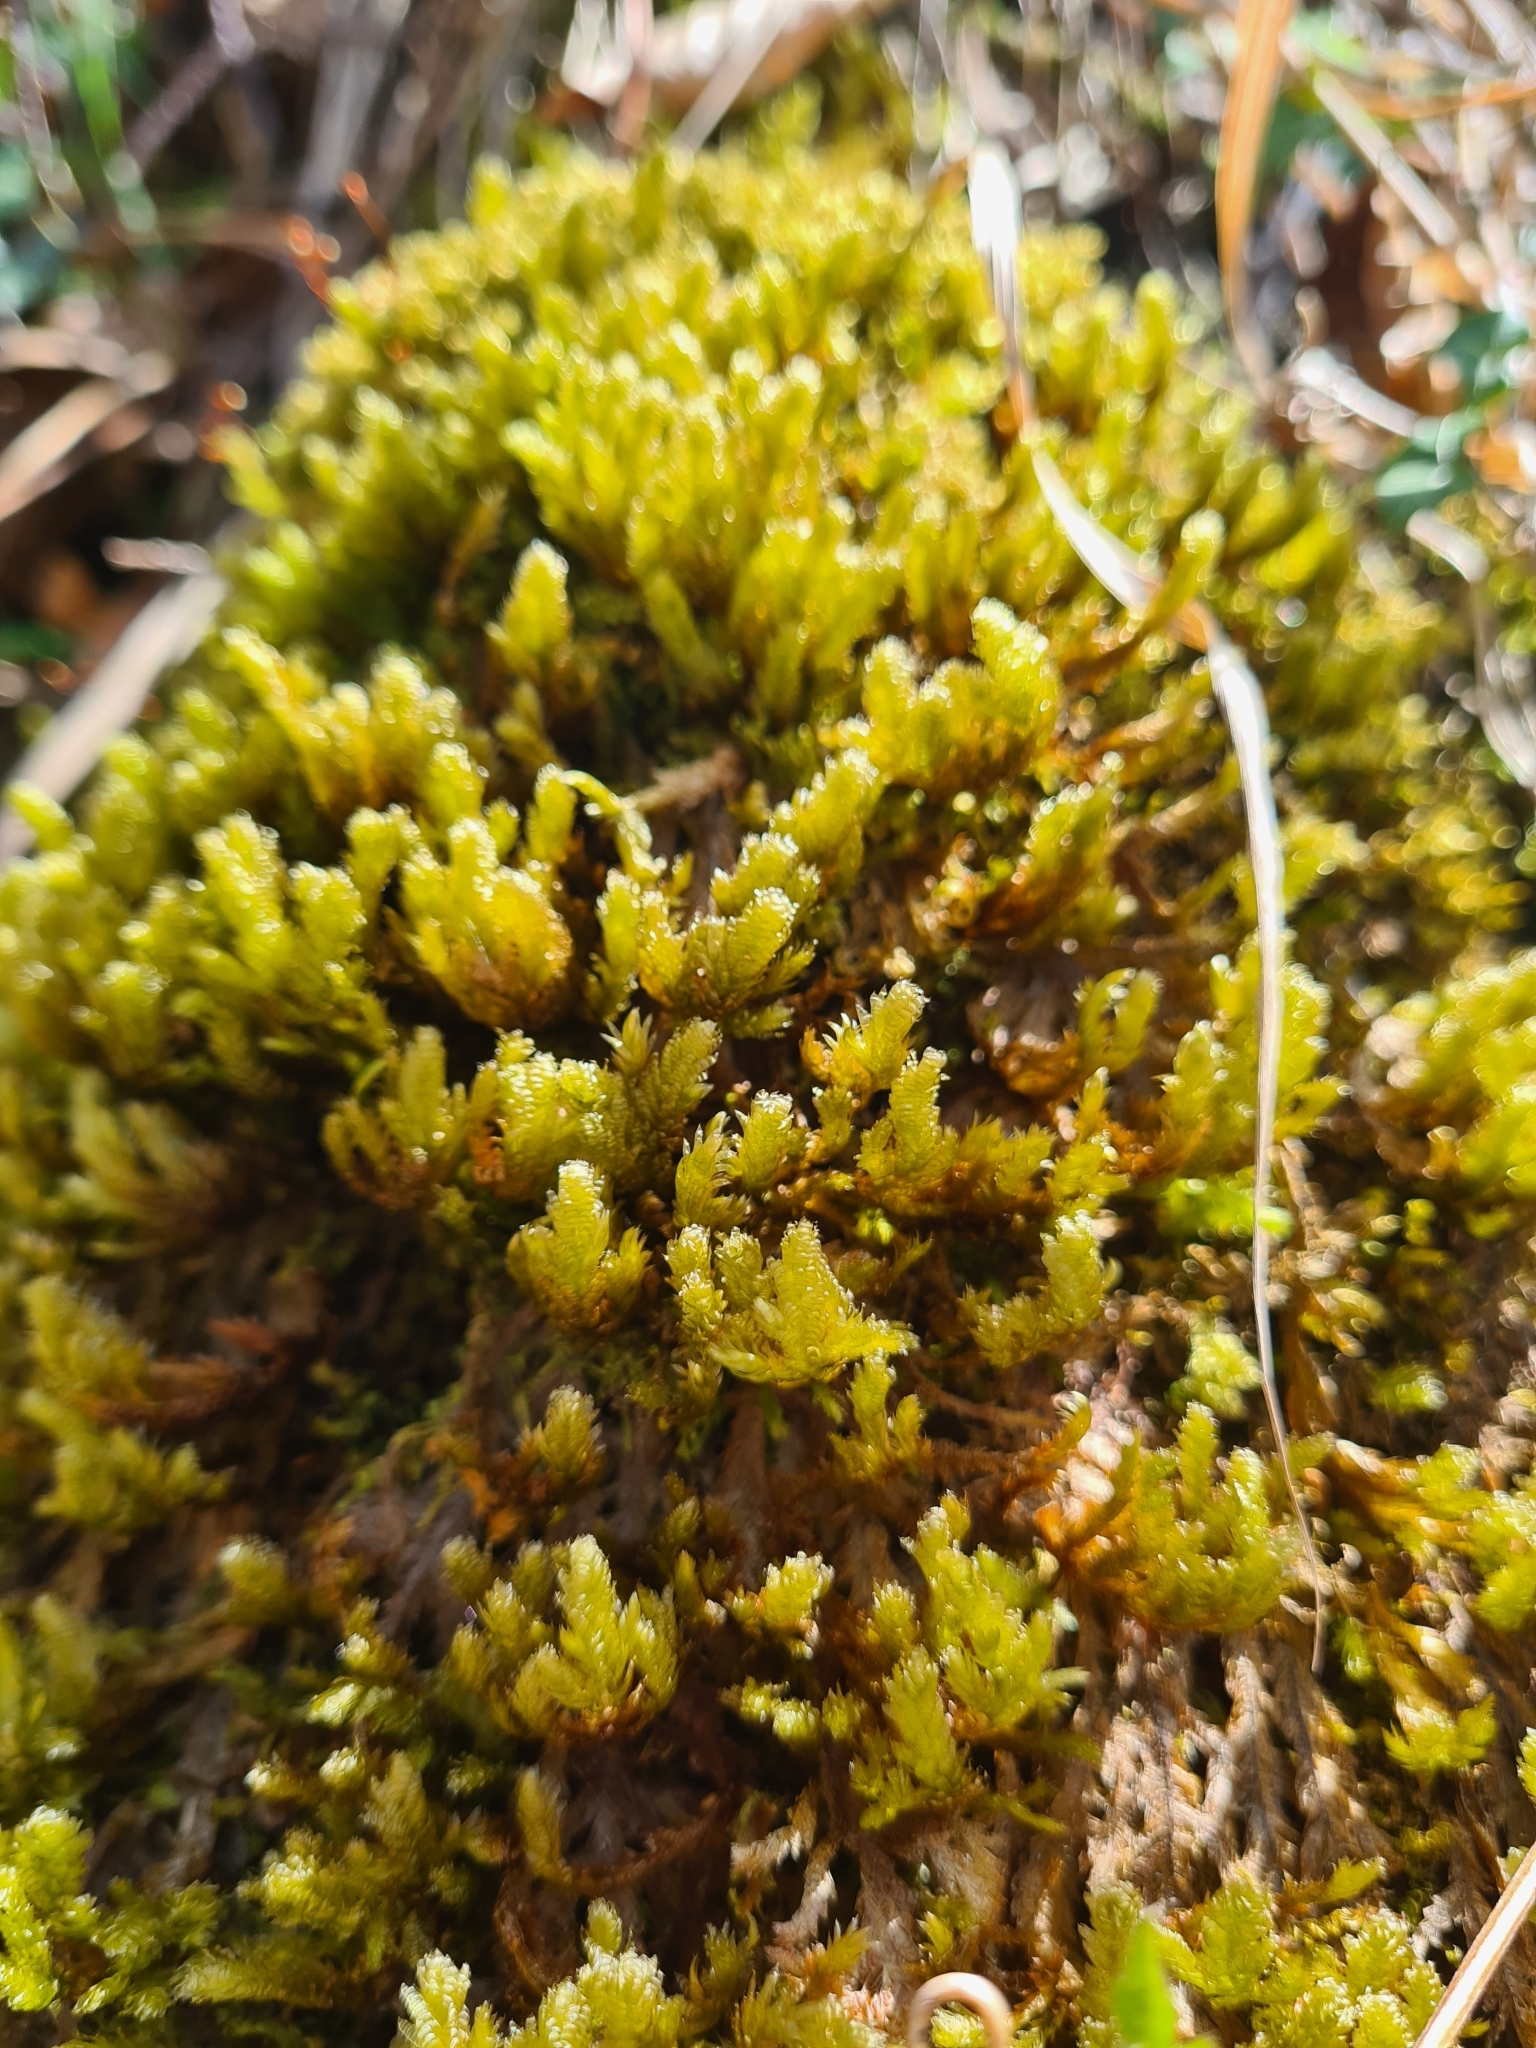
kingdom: Plantae
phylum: Bryophyta
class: Bryopsida
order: Hypnales
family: Neckeraceae
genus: Exsertotheca
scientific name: Exsertotheca crispa
